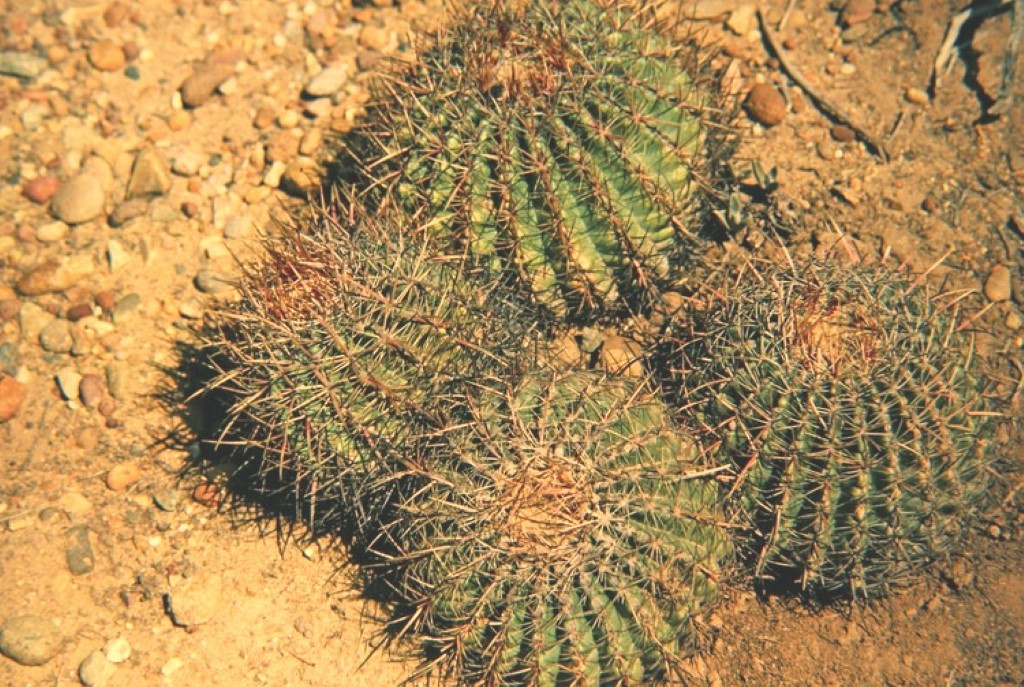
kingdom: Plantae
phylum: Tracheophyta
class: Magnoliopsida
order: Caryophyllales
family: Cactaceae
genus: Ferocactus
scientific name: Ferocactus cylindraceus
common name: California barrel cactus
